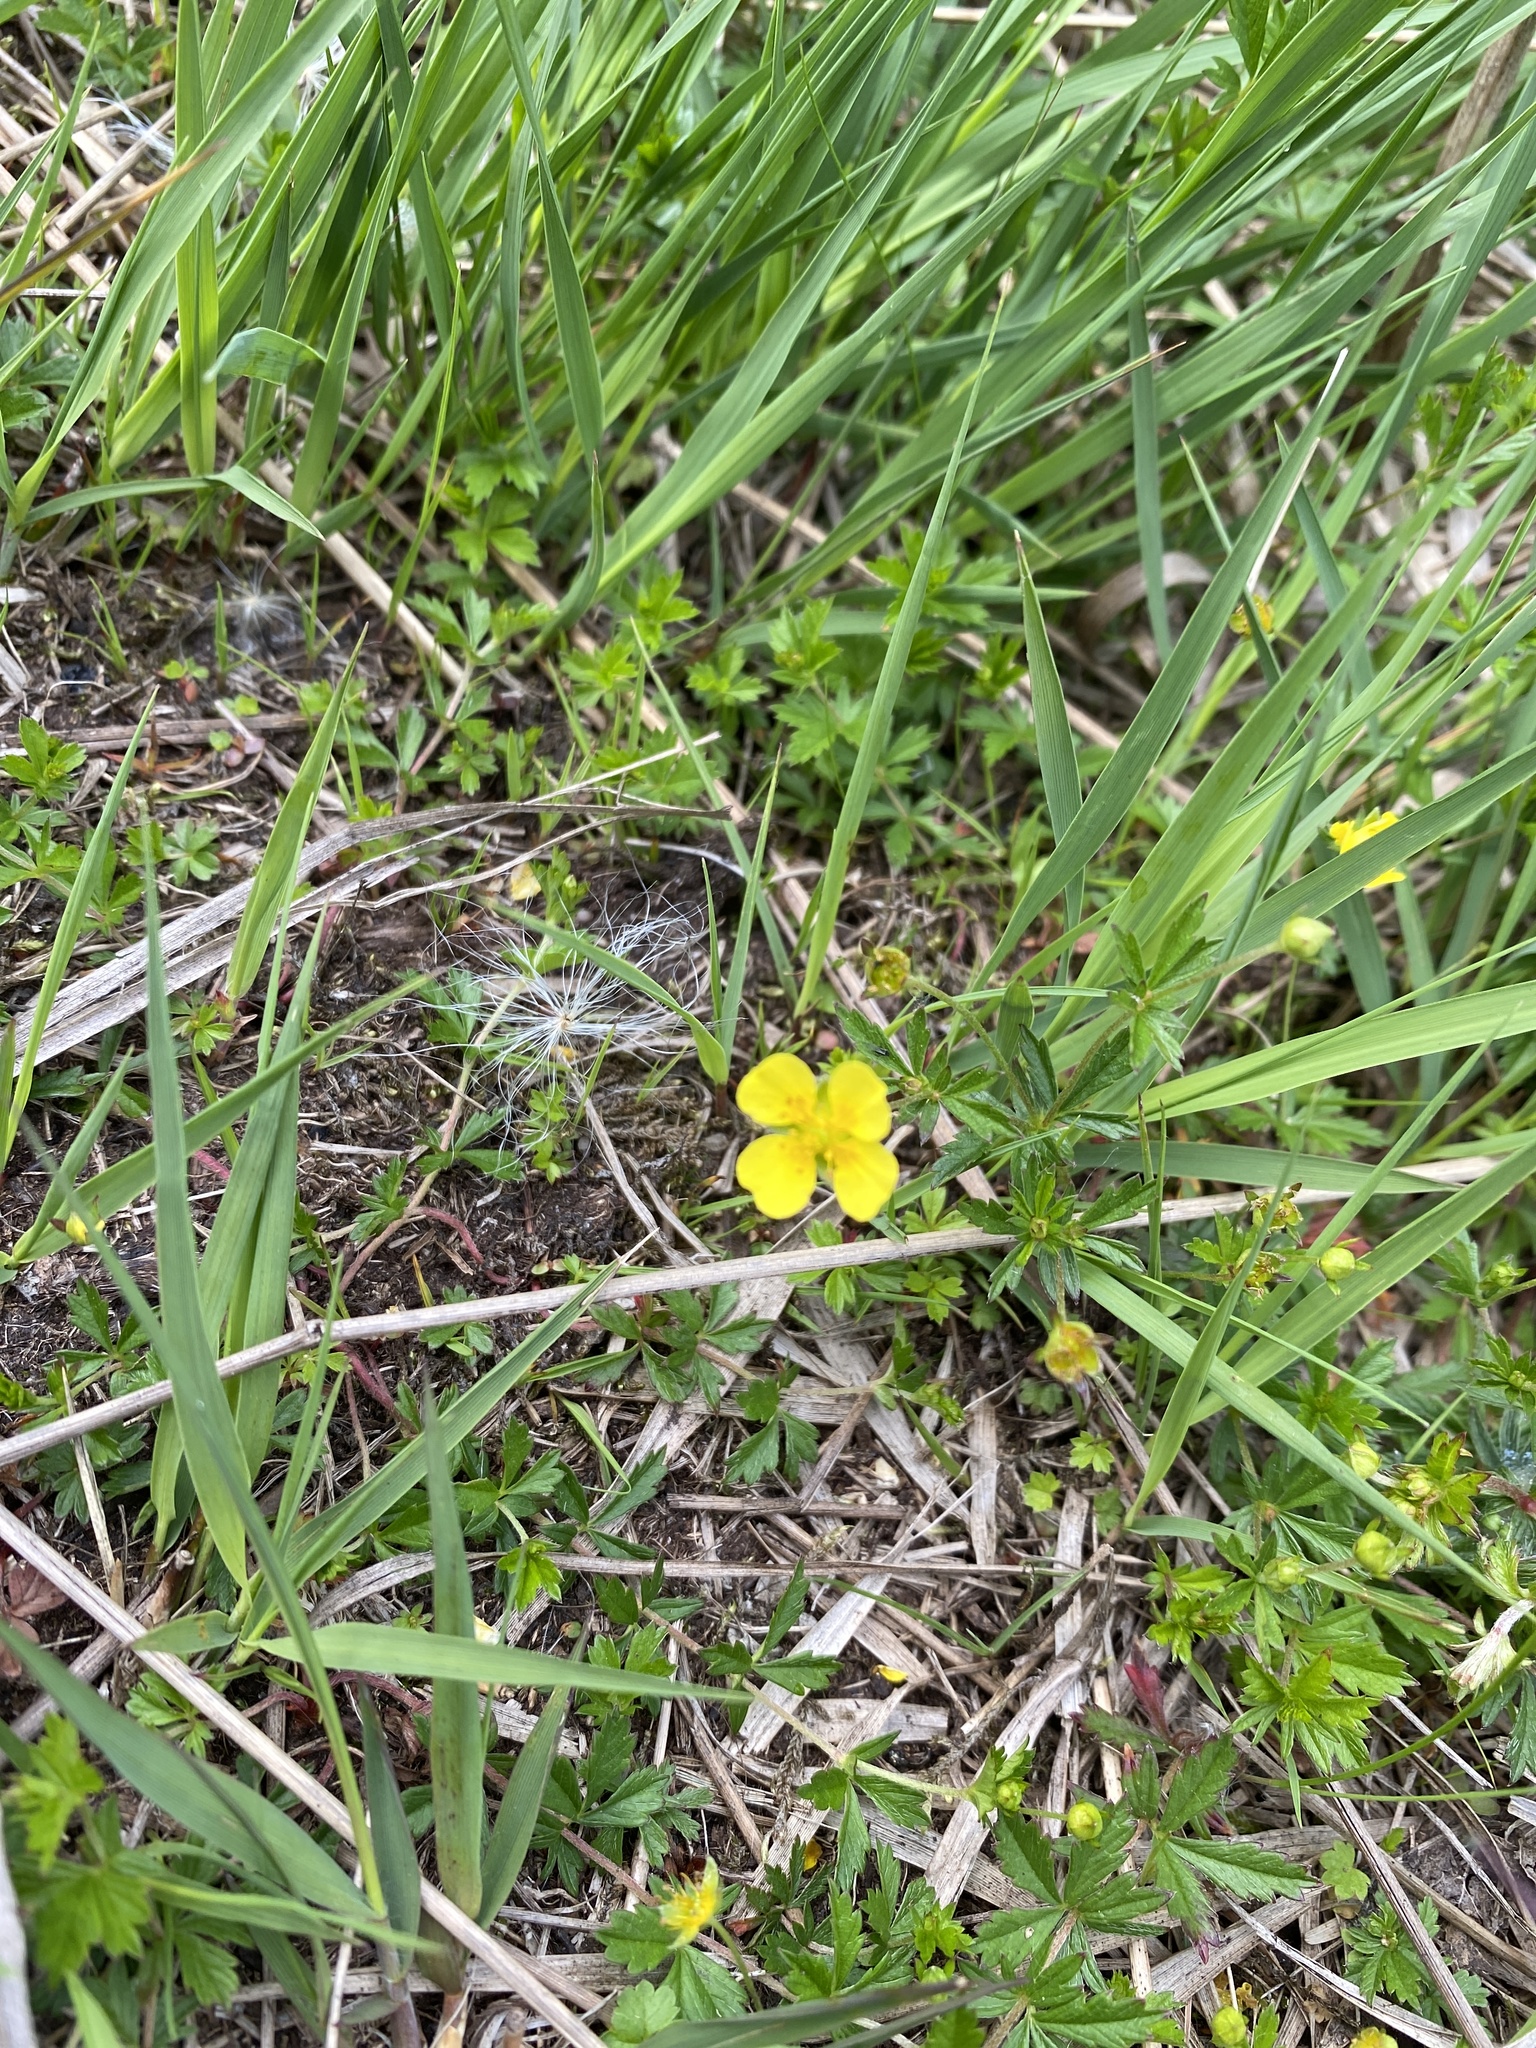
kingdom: Plantae
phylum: Tracheophyta
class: Magnoliopsida
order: Rosales
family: Rosaceae
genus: Potentilla
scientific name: Potentilla erecta
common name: Tormentil
